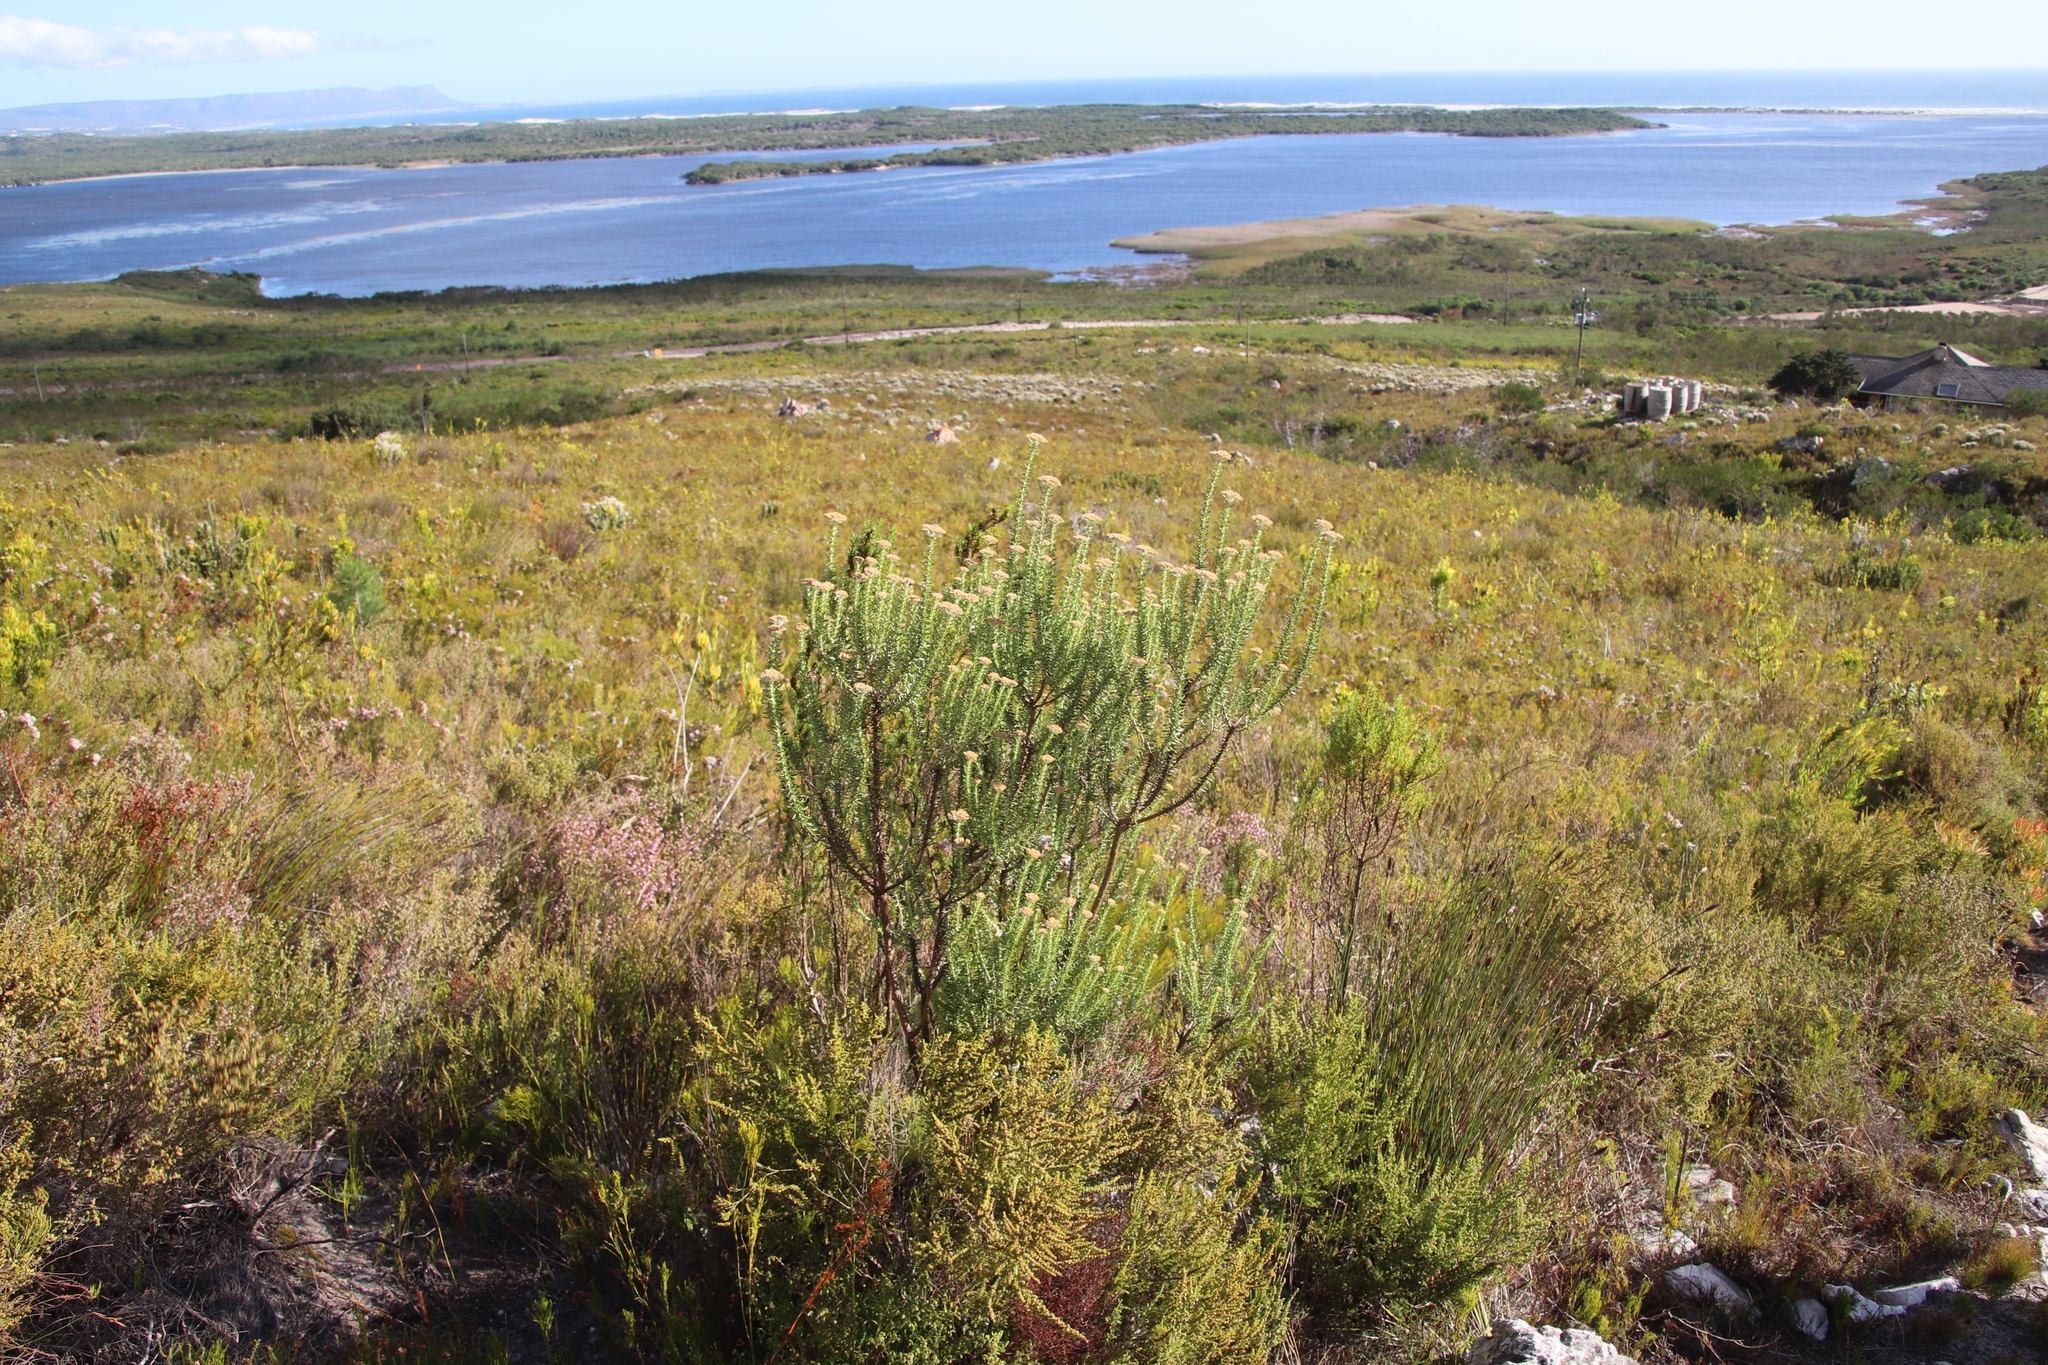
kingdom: Plantae
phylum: Tracheophyta
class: Magnoliopsida
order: Asterales
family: Asteraceae
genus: Metalasia
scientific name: Metalasia densa
